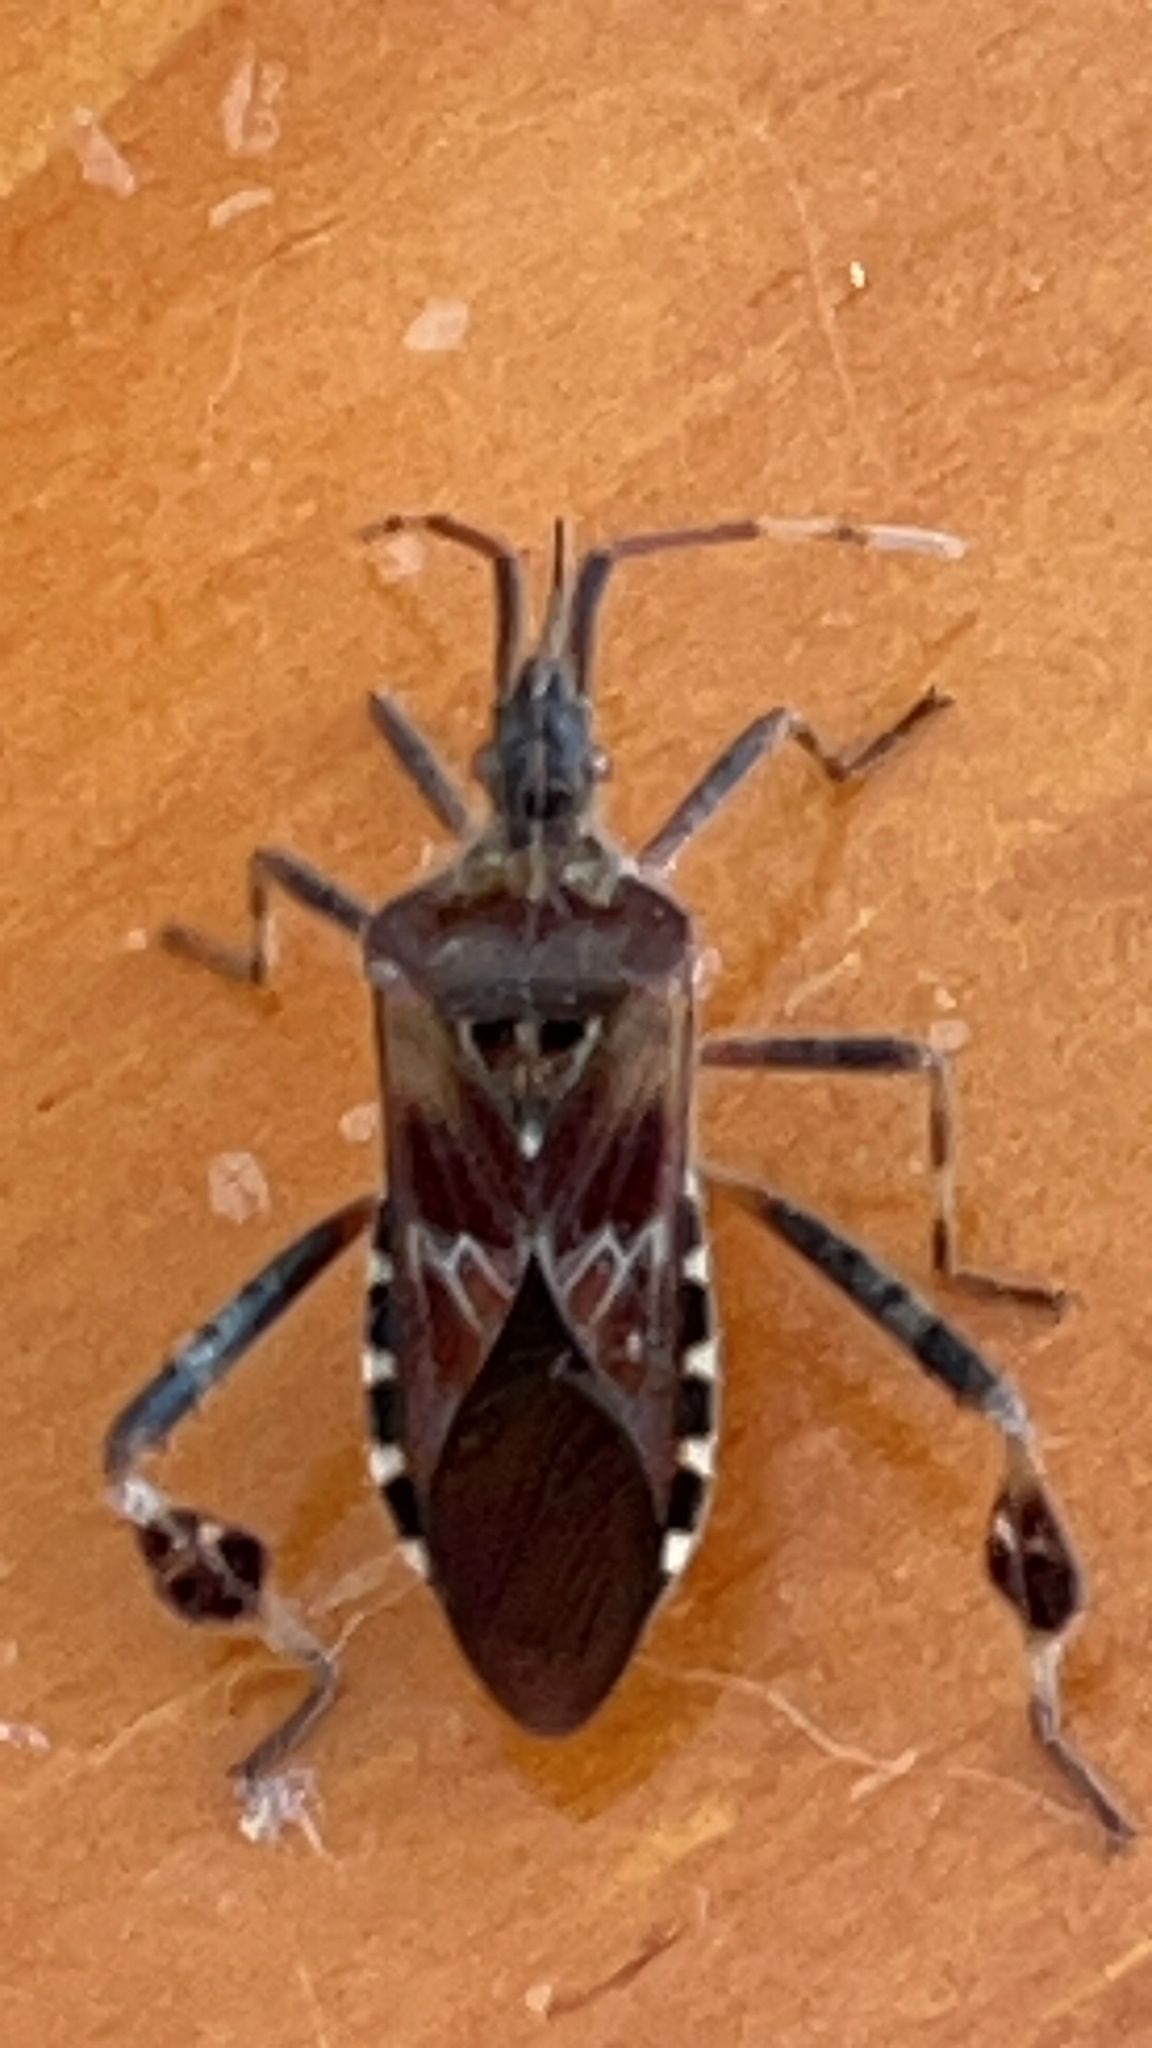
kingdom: Animalia
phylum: Arthropoda
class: Insecta
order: Hemiptera
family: Coreidae
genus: Leptoglossus
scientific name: Leptoglossus occidentalis
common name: Western conifer-seed bug
